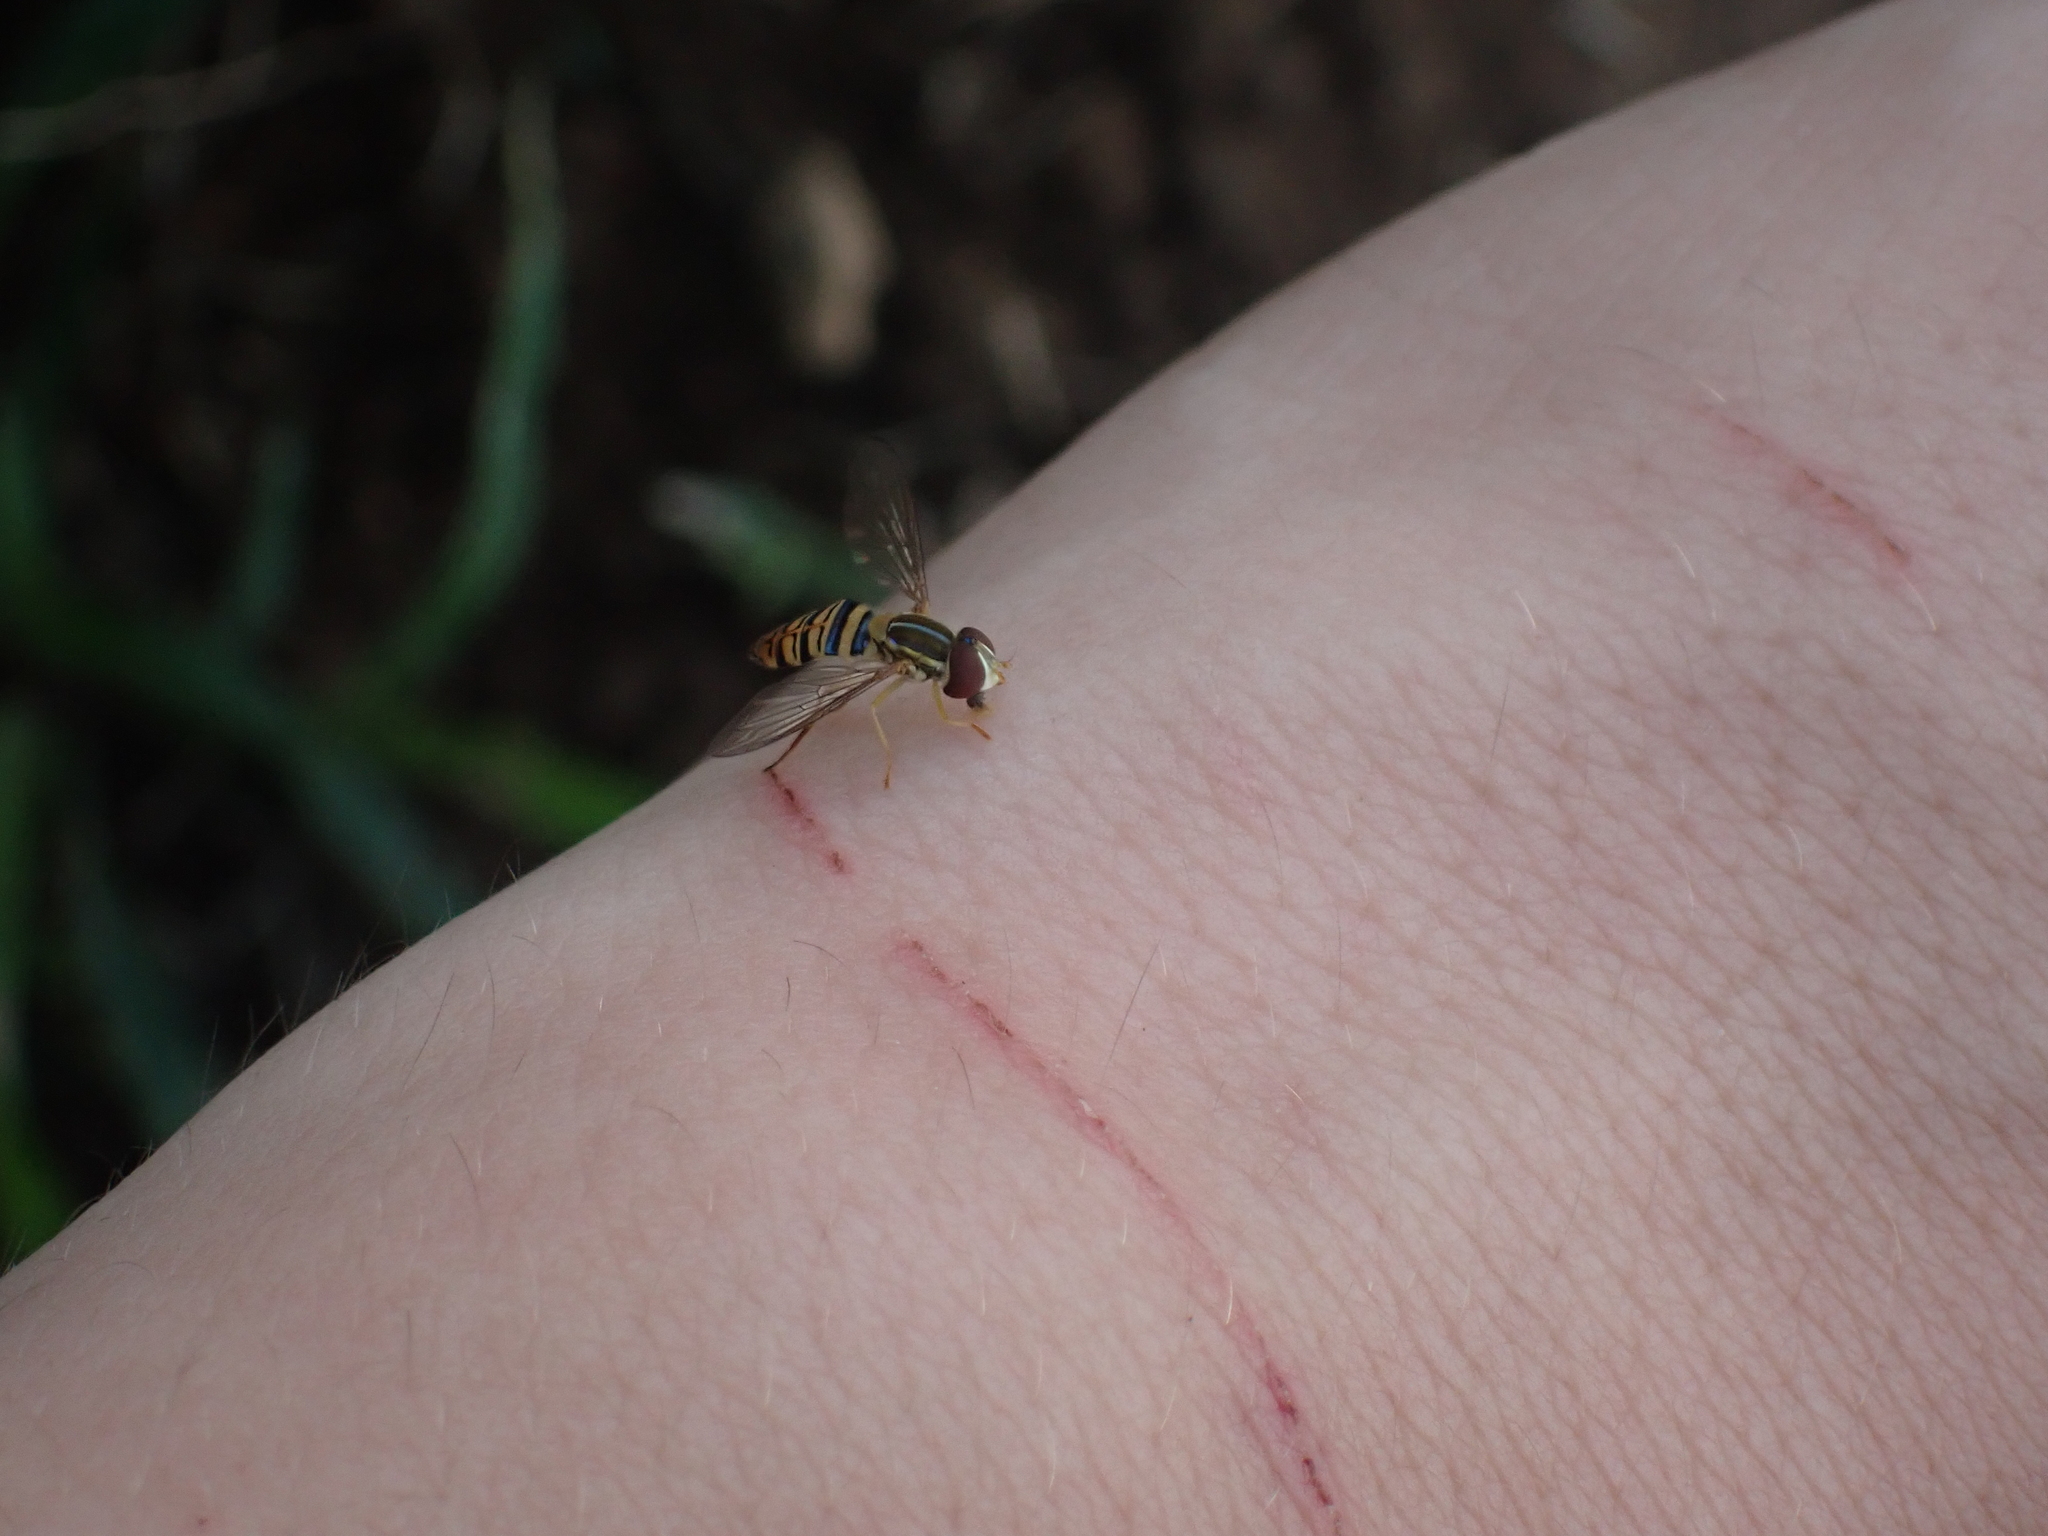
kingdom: Animalia
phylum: Arthropoda
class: Insecta
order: Diptera
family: Syrphidae
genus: Toxomerus
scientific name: Toxomerus politus
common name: Maize calligrapher
